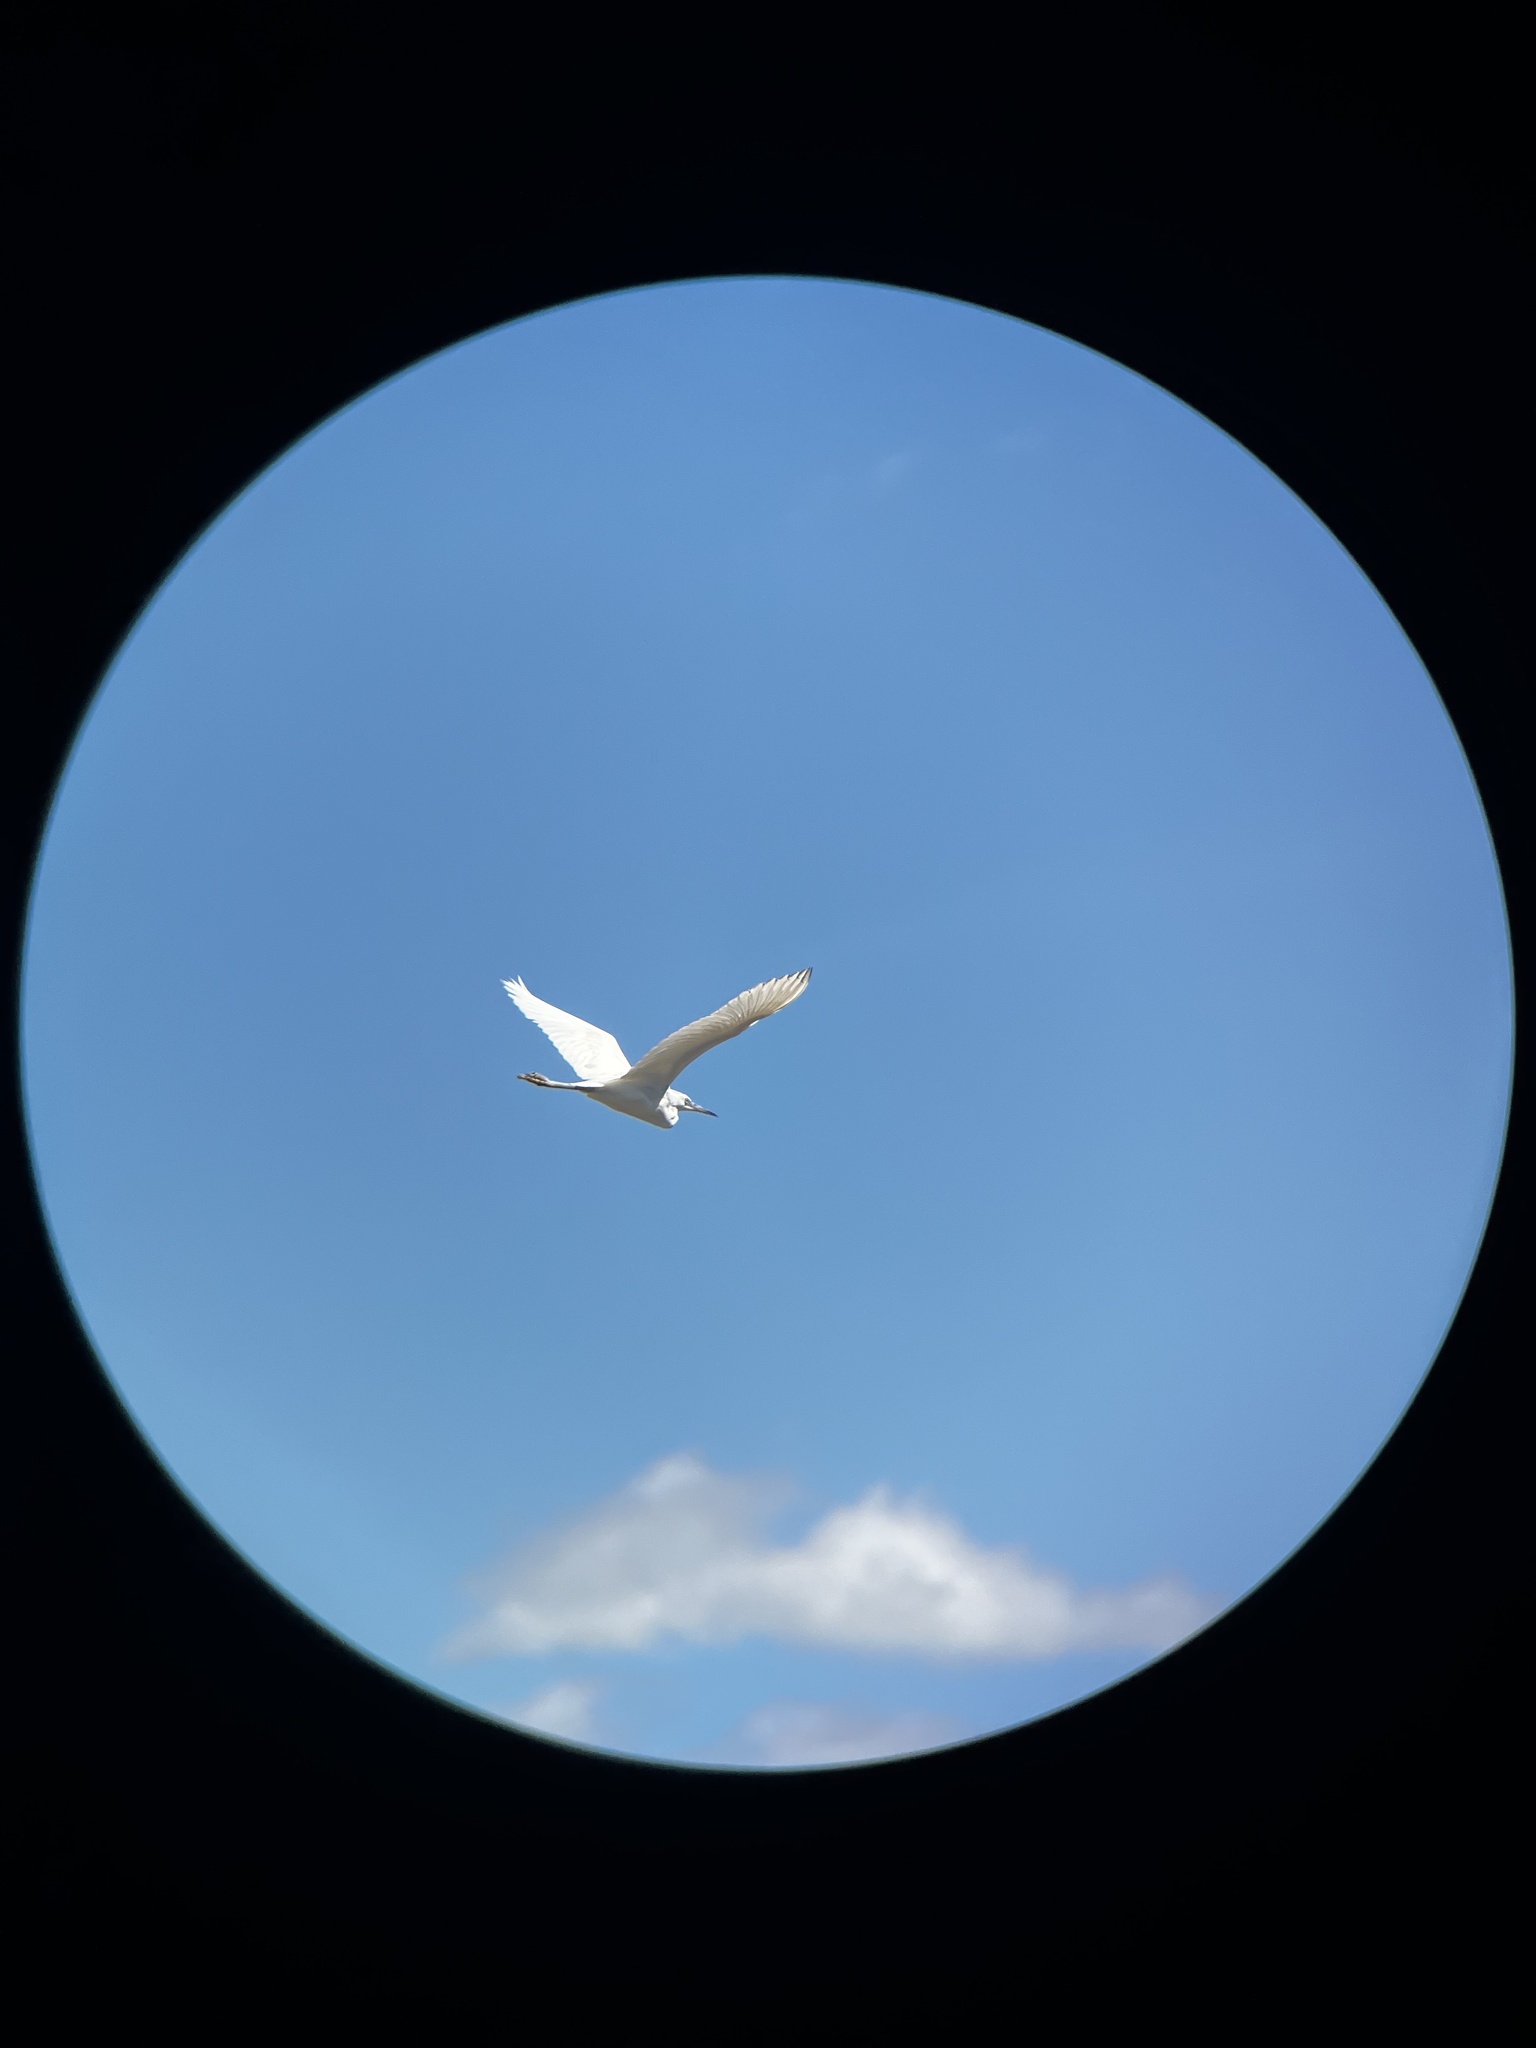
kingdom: Animalia
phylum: Chordata
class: Aves
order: Pelecaniformes
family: Ardeidae
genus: Egretta
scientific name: Egretta caerulea
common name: Little blue heron
